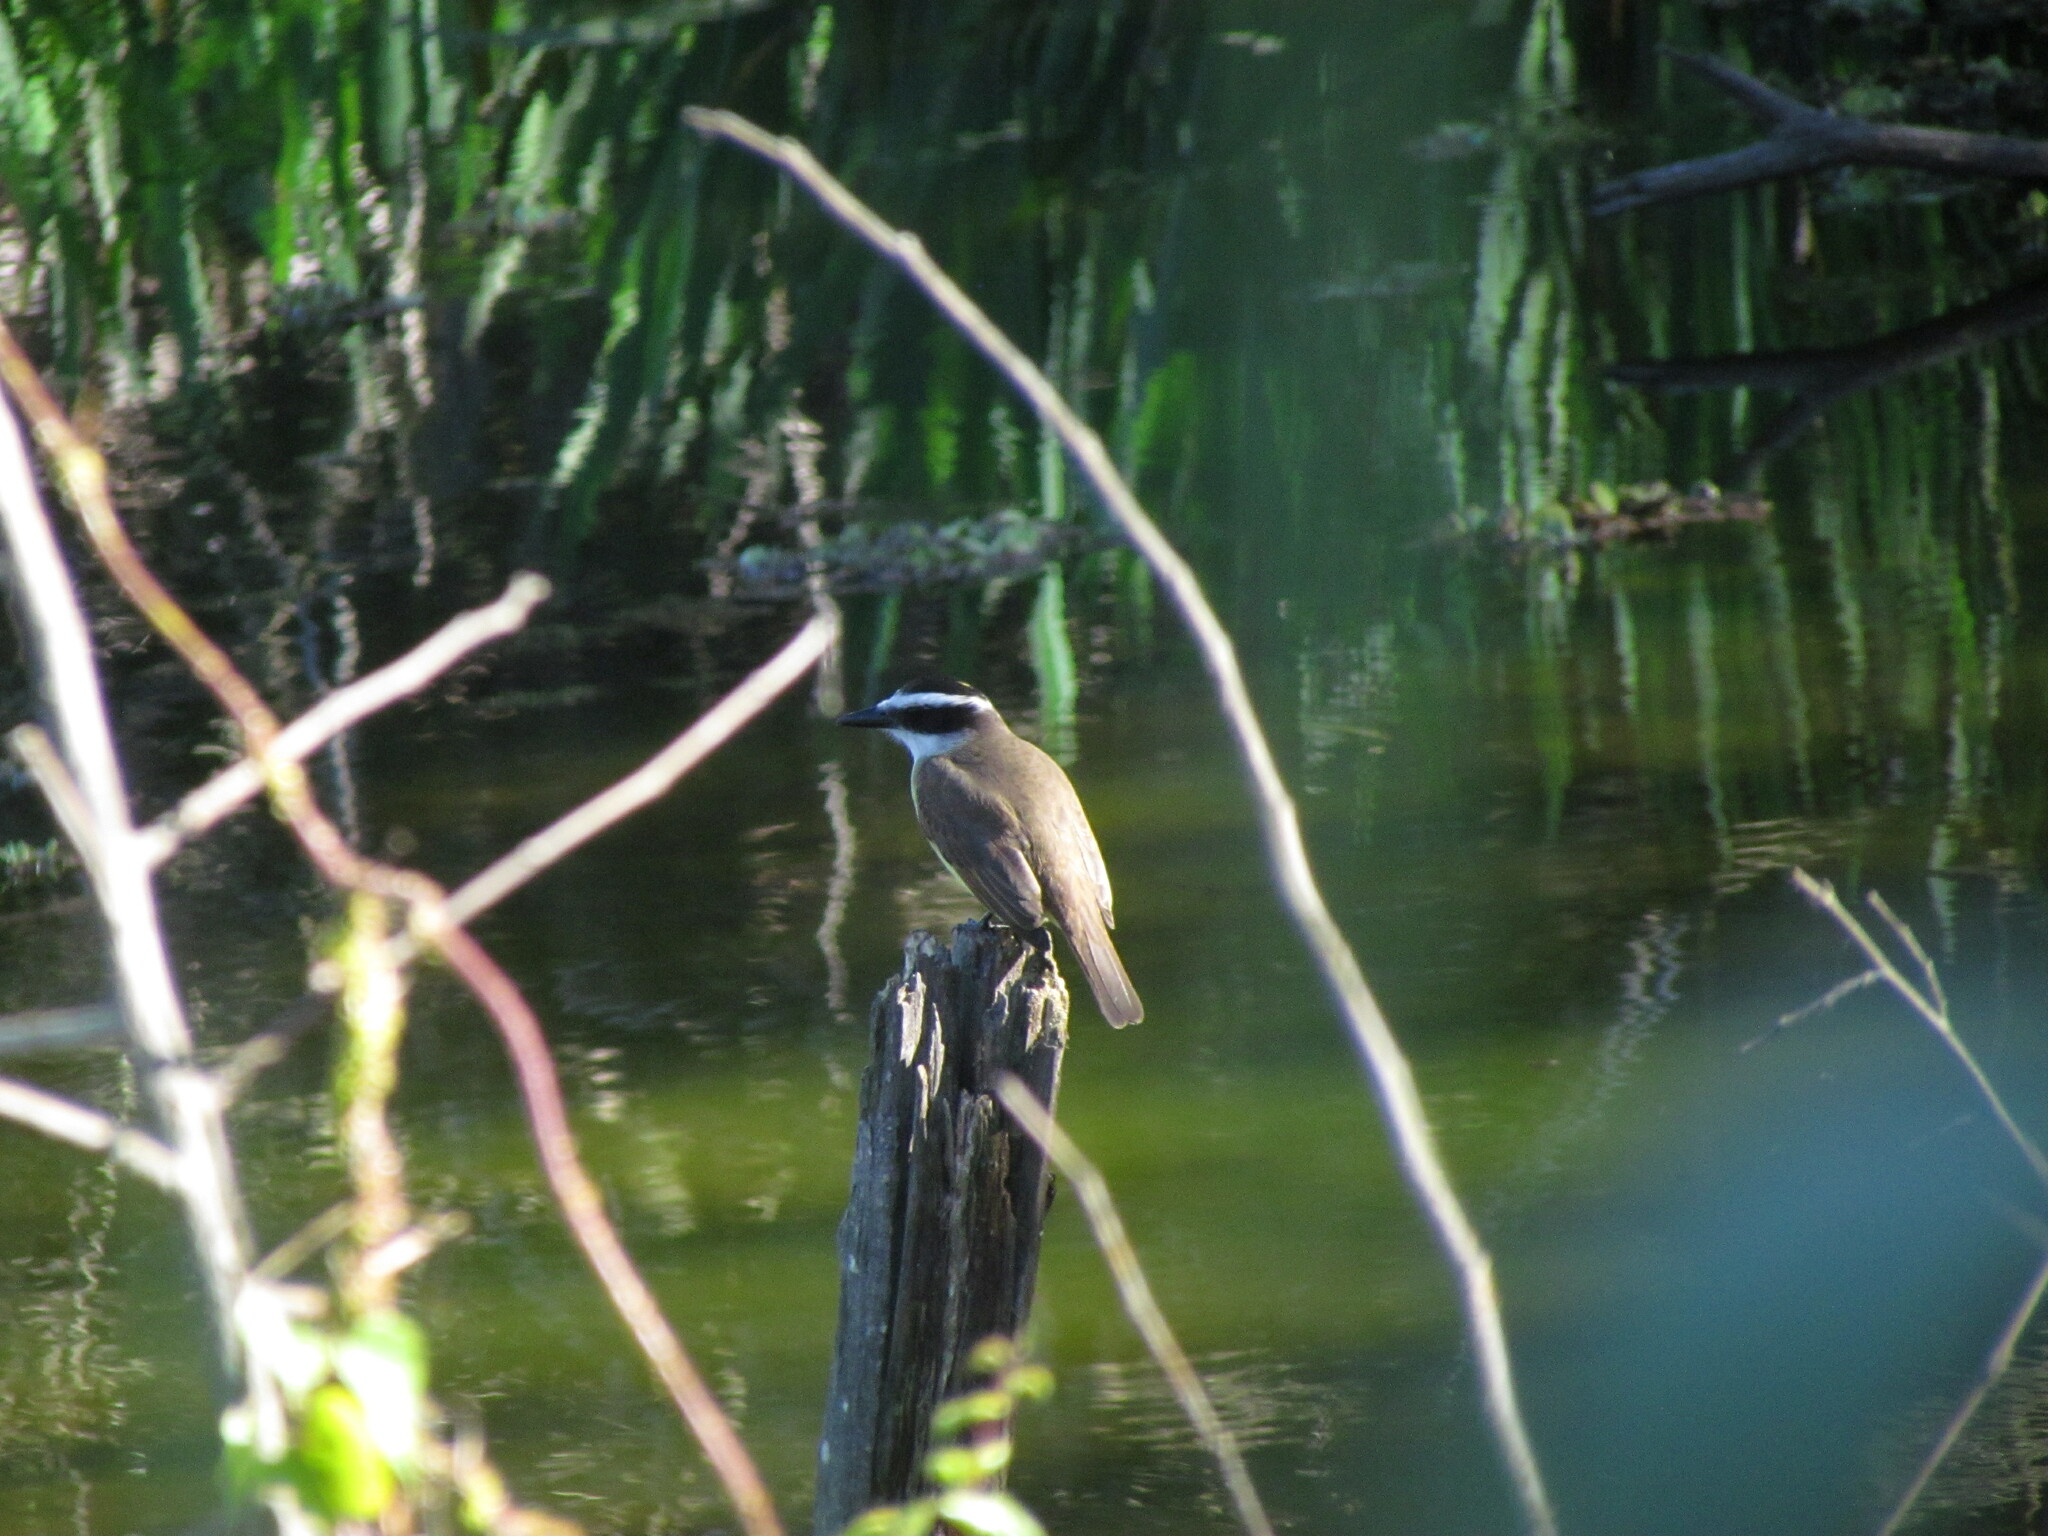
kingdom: Animalia
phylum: Chordata
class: Aves
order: Passeriformes
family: Tyrannidae
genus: Pitangus
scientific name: Pitangus sulphuratus
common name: Great kiskadee
